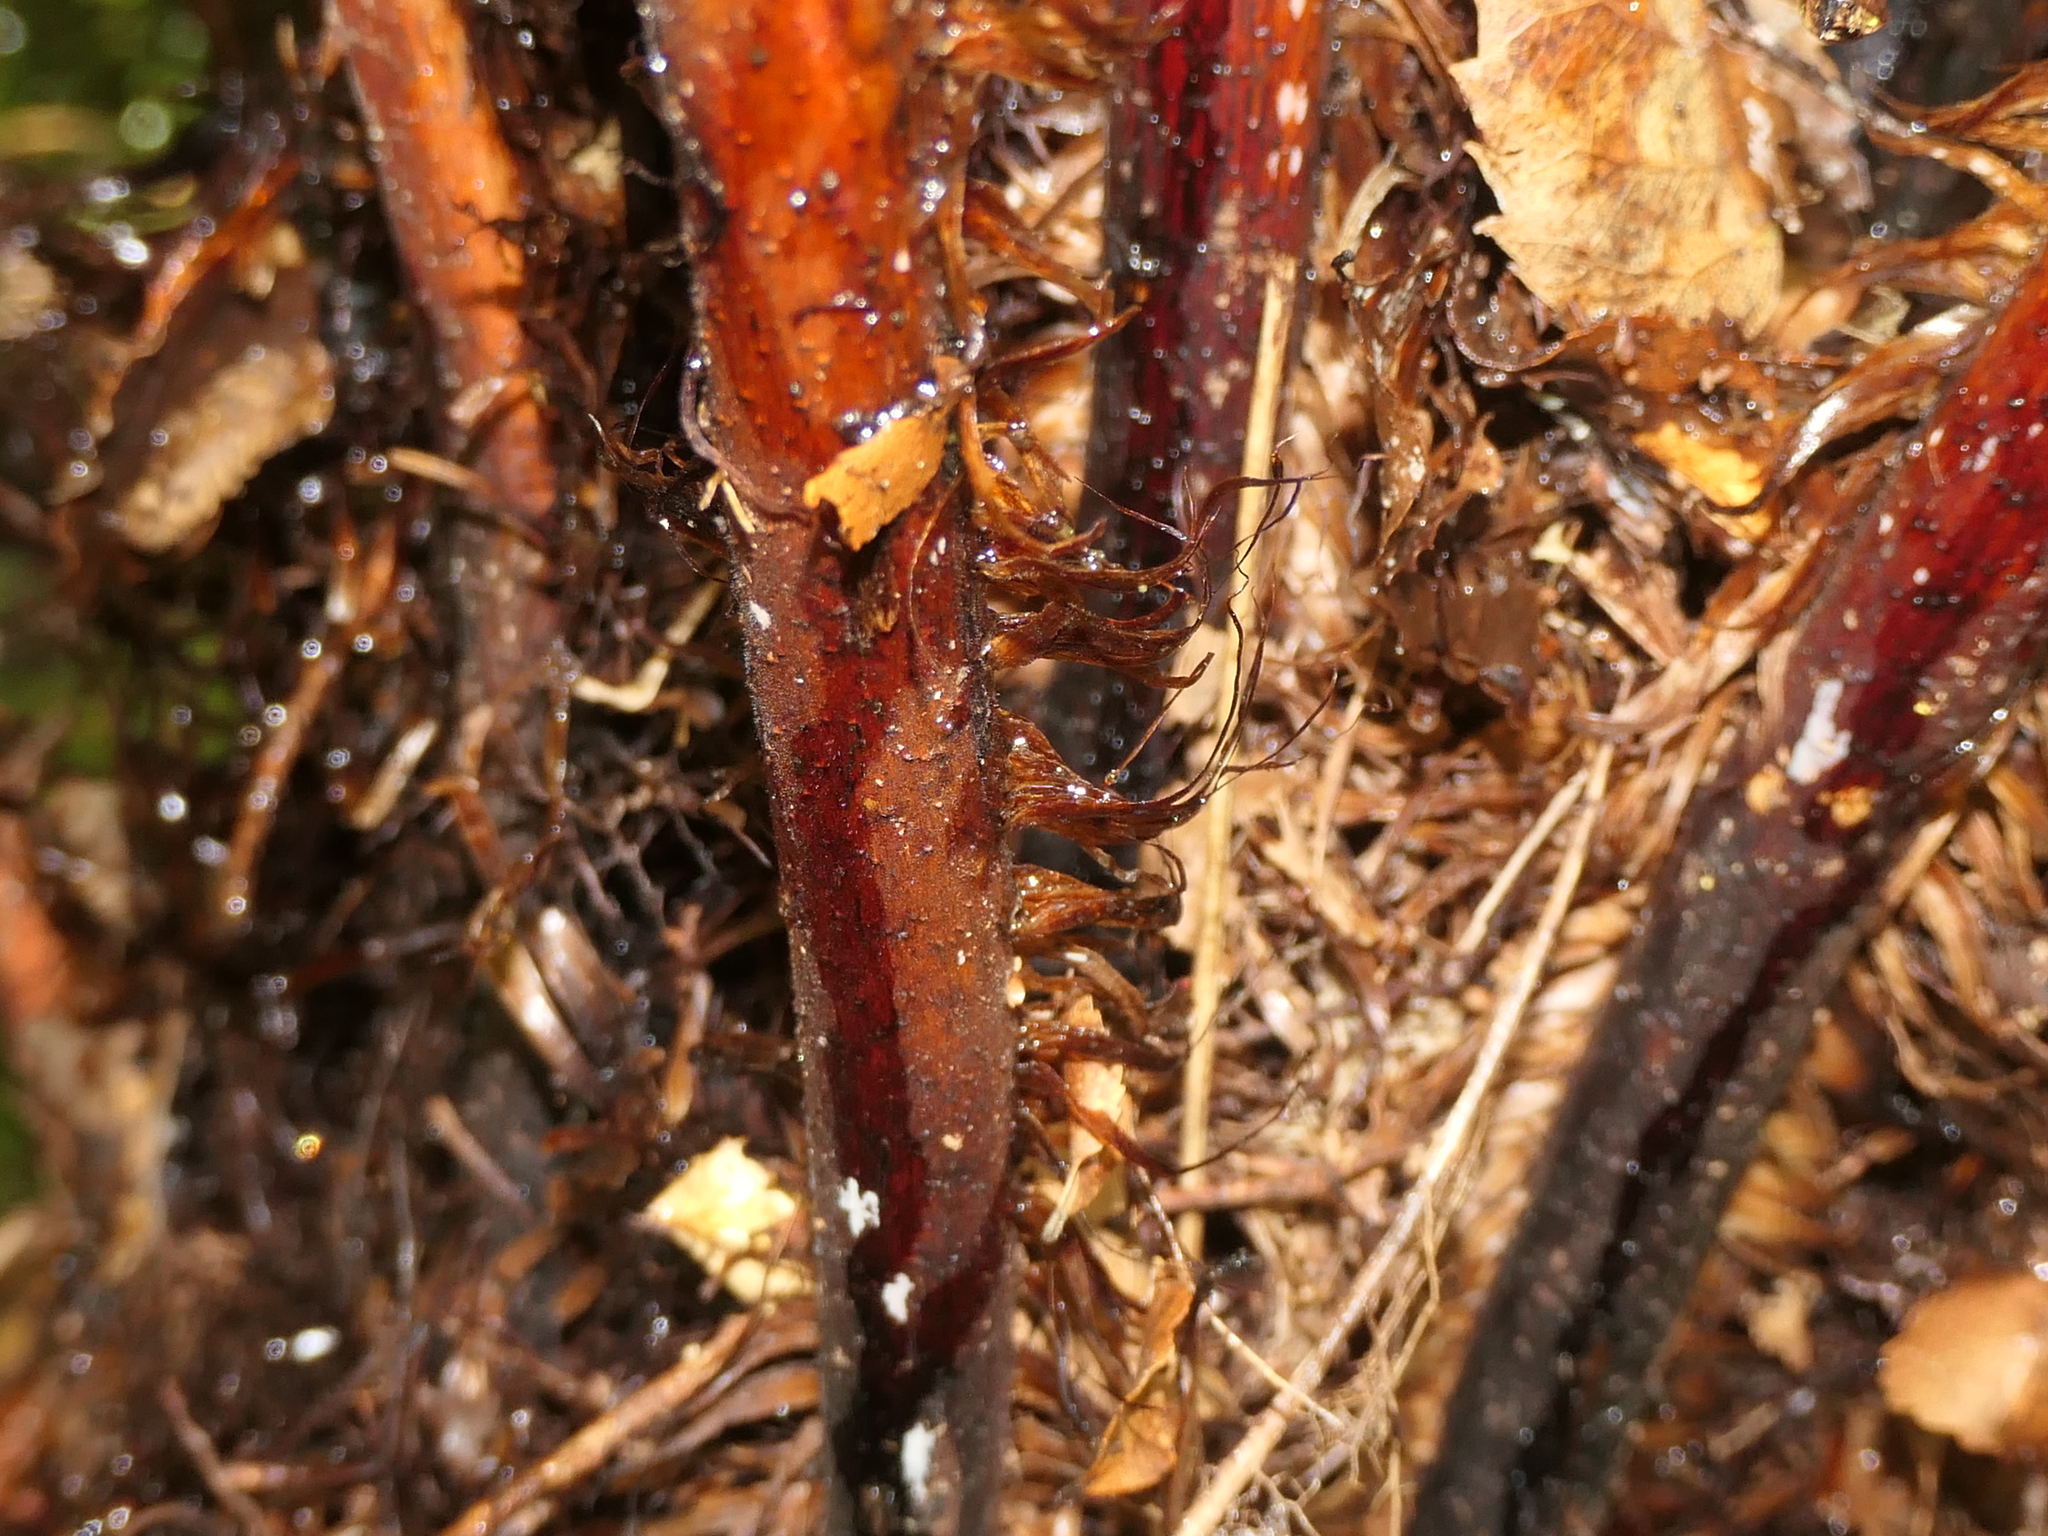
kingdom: Plantae
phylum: Tracheophyta
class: Polypodiopsida
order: Cyatheales
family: Cyatheaceae
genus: Alsophila
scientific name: Alsophila smithii
